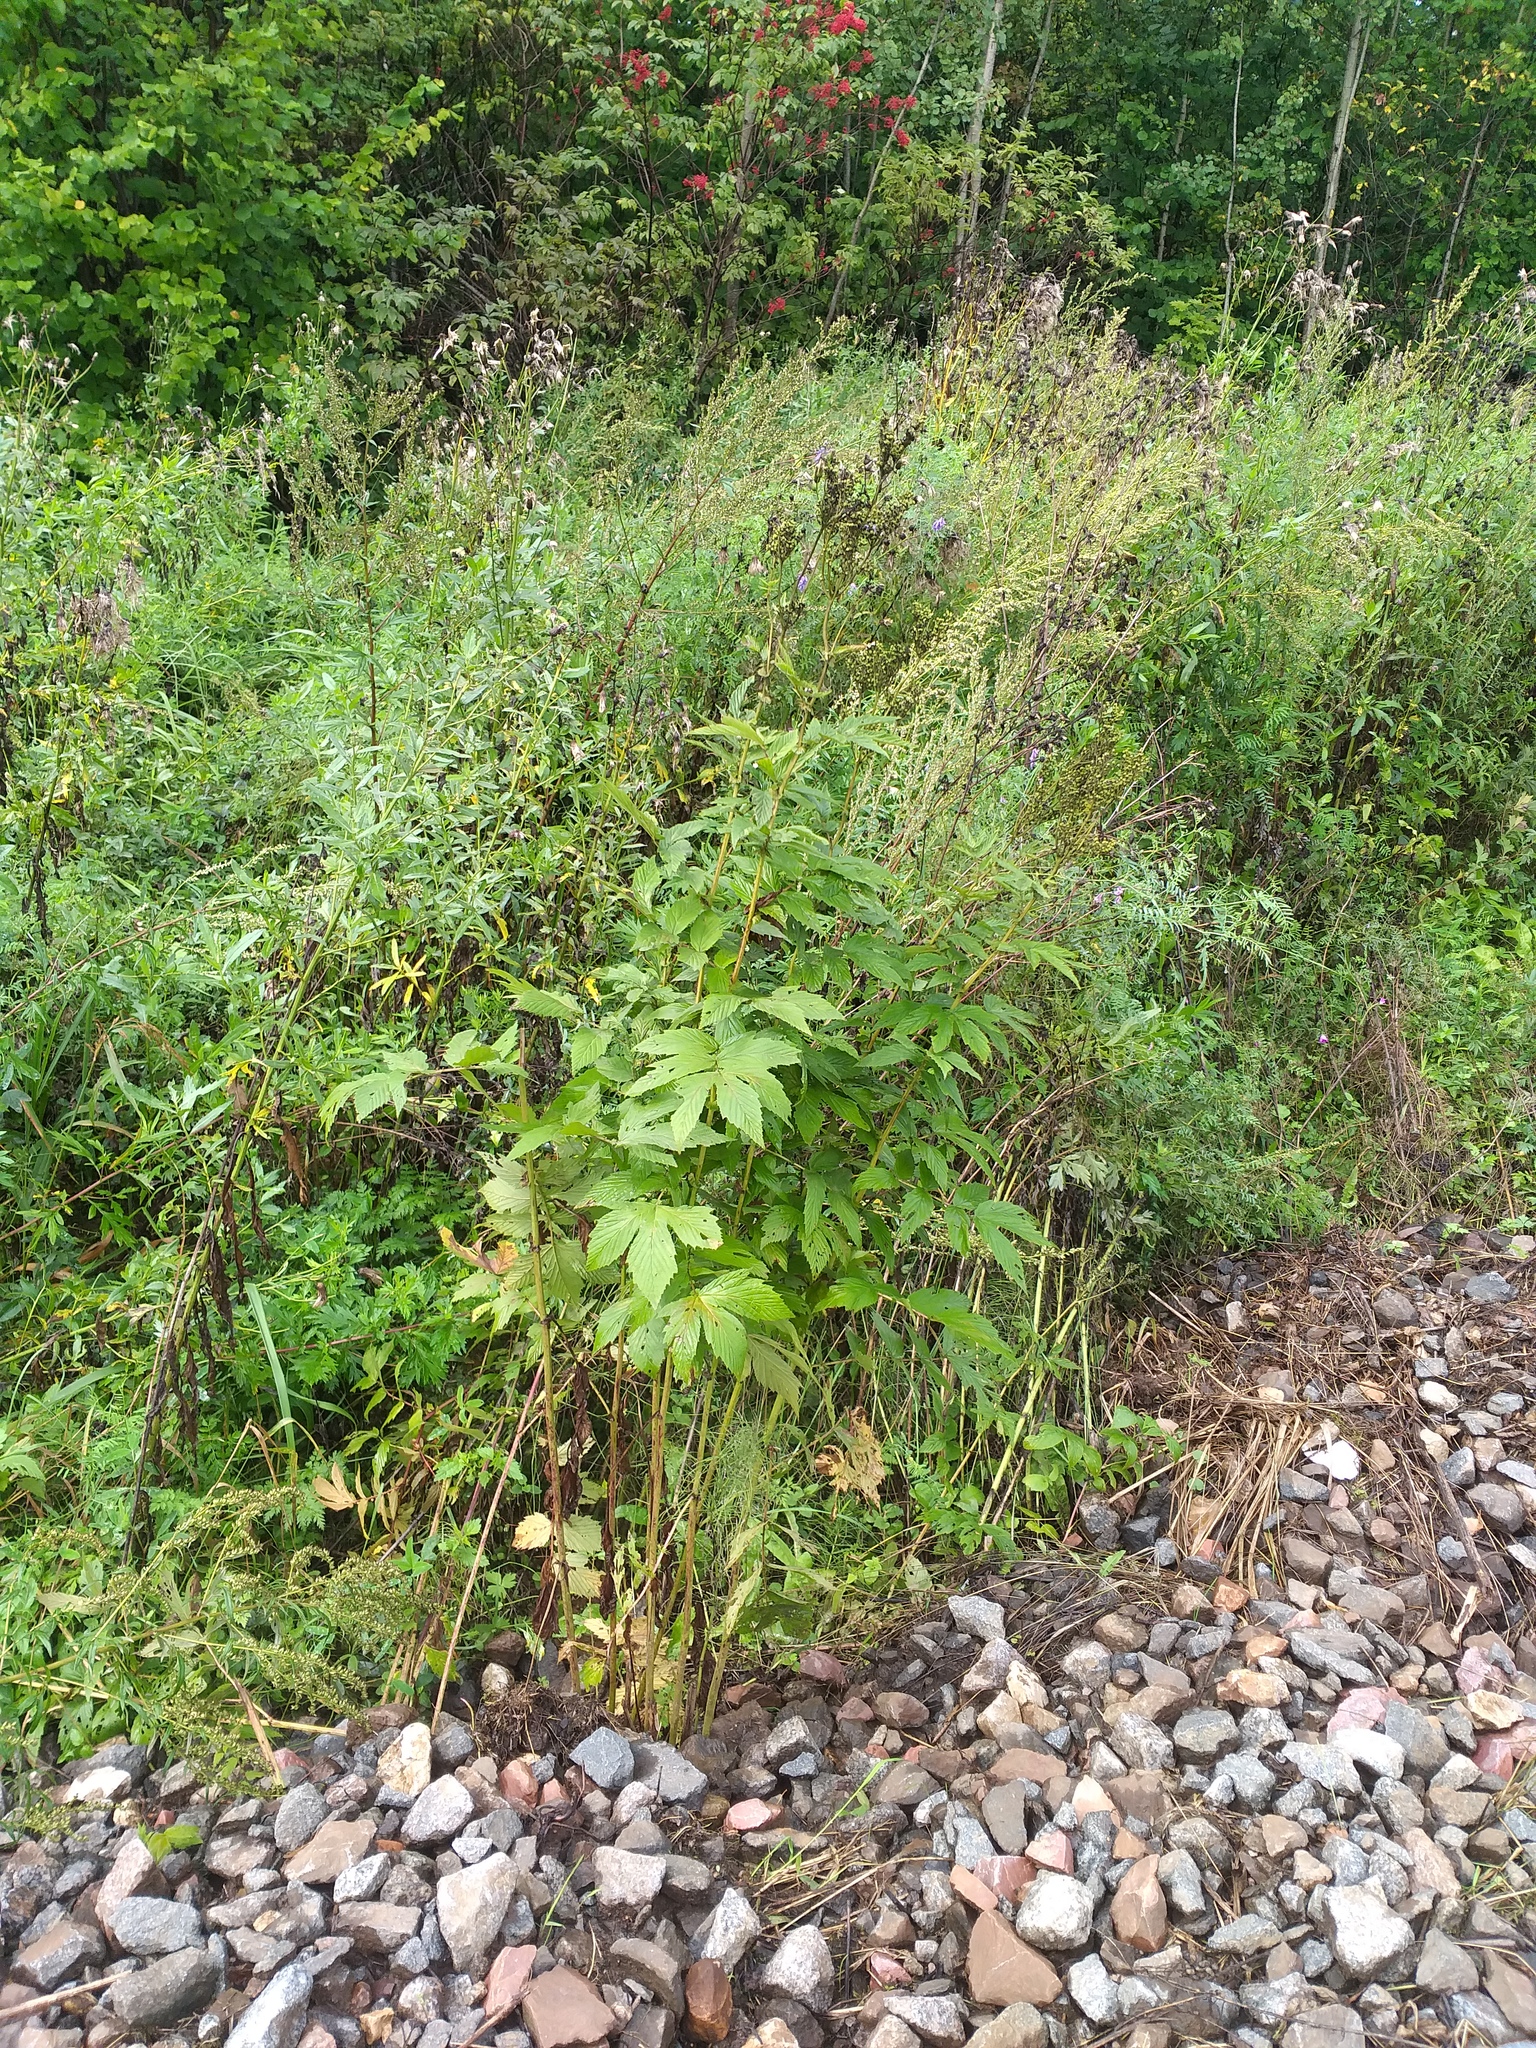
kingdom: Plantae
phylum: Tracheophyta
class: Magnoliopsida
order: Rosales
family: Rosaceae
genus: Filipendula
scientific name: Filipendula ulmaria
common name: Meadowsweet
